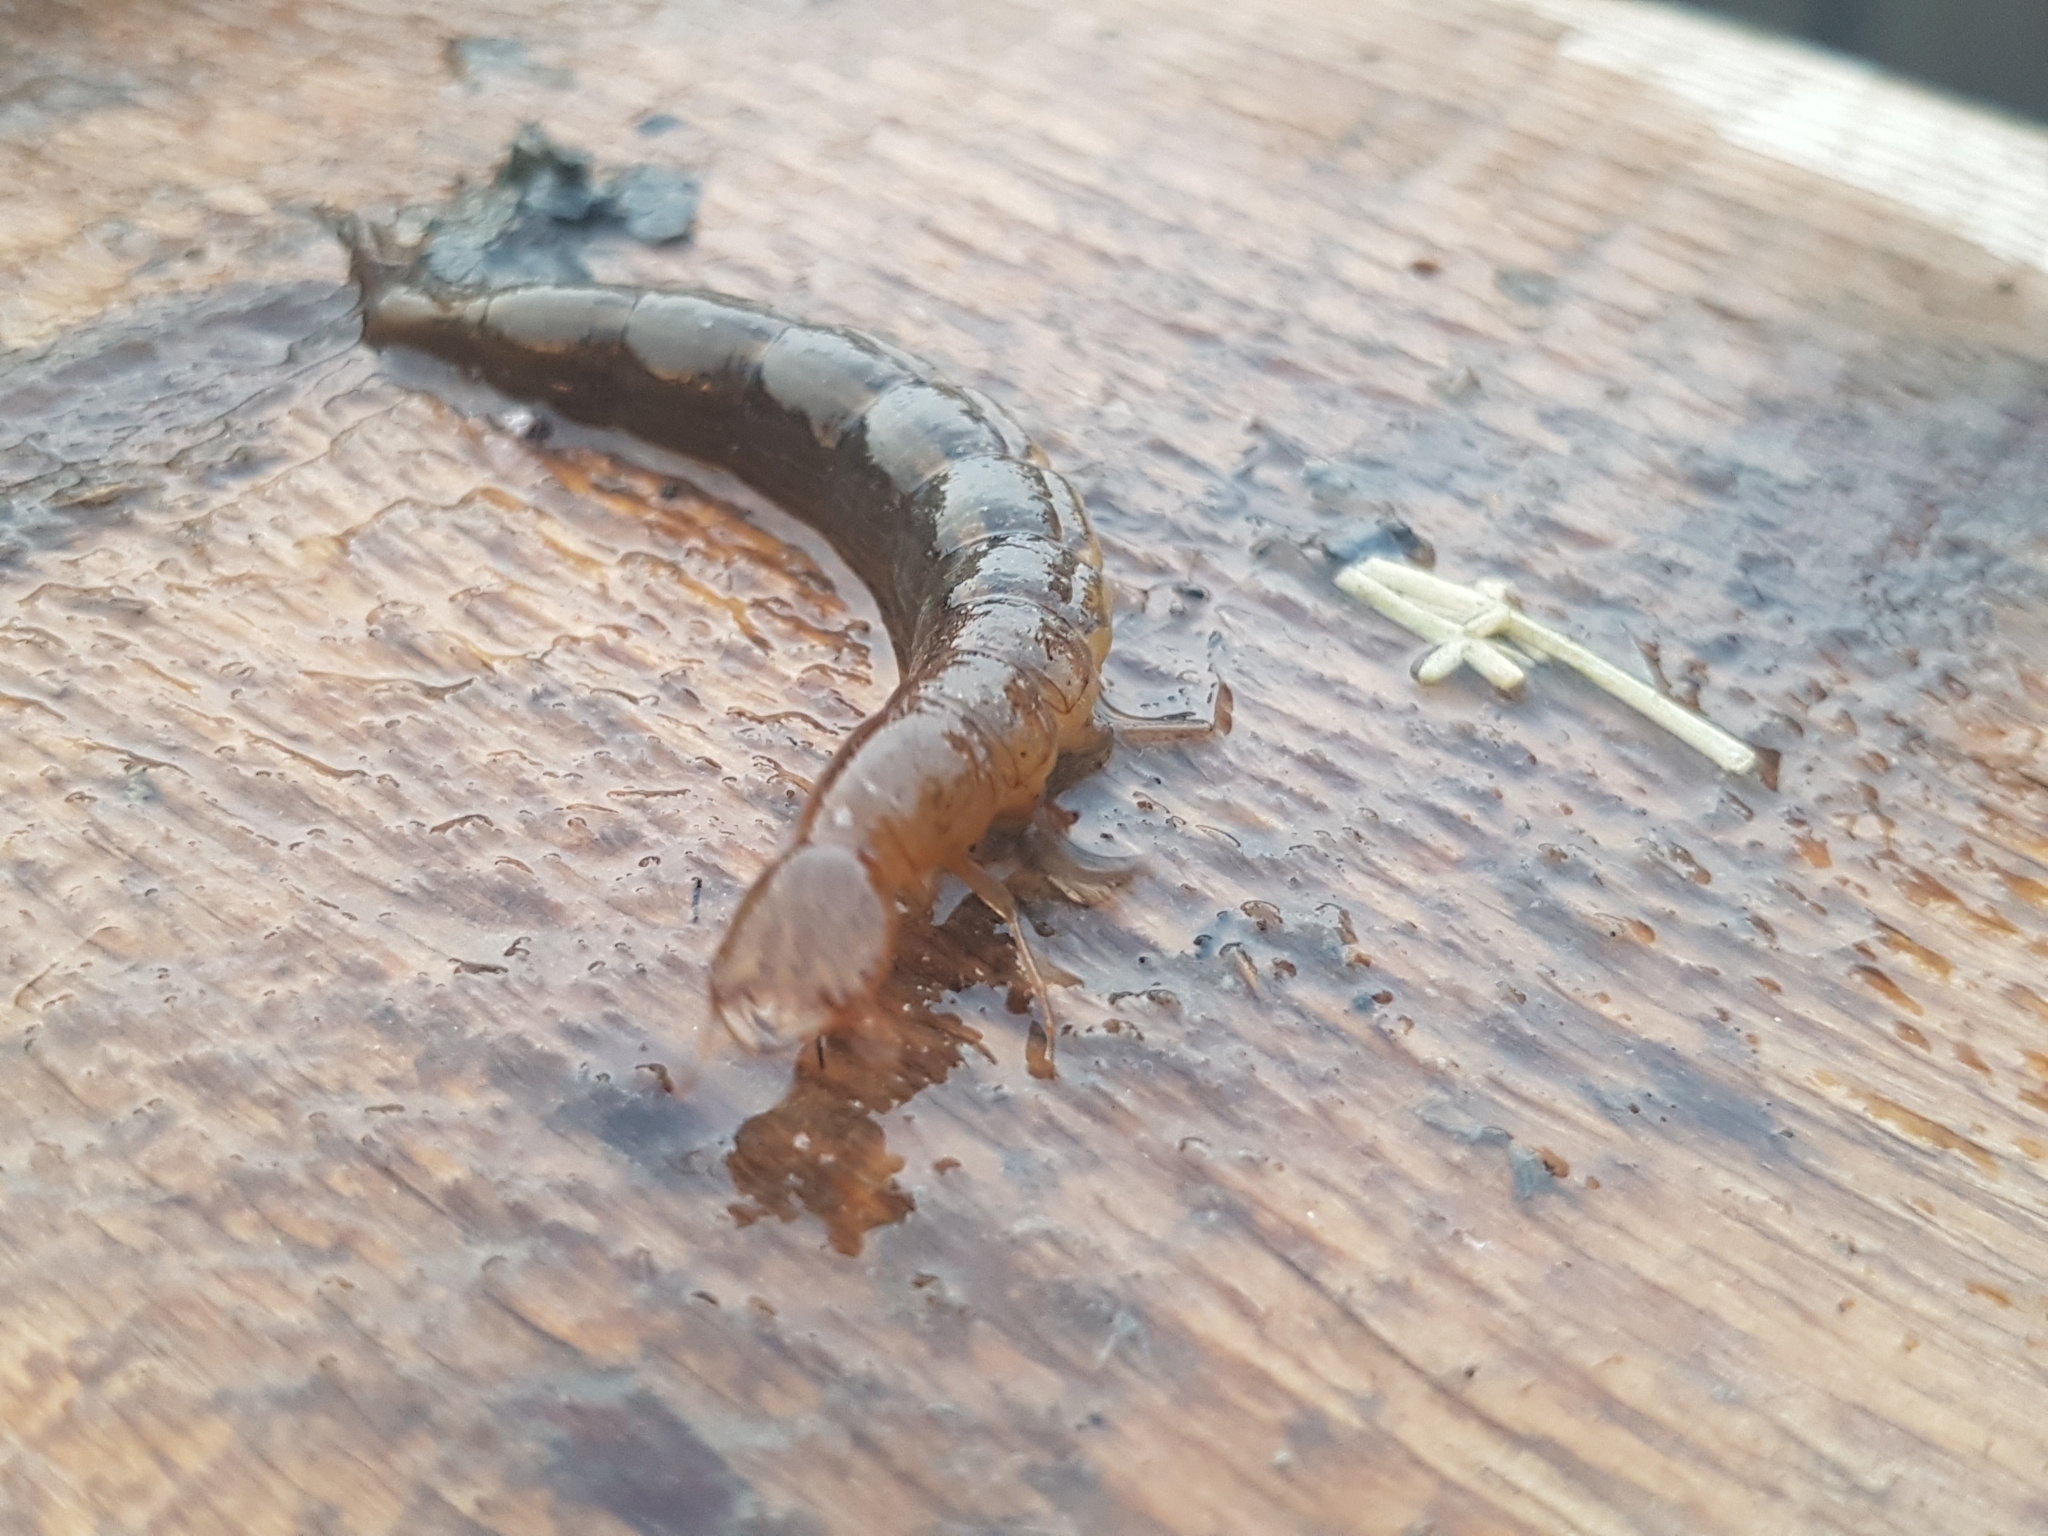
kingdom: Animalia
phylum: Arthropoda
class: Insecta
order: Coleoptera
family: Dytiscidae
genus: Cybister
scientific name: Cybister lateralimarginalis
